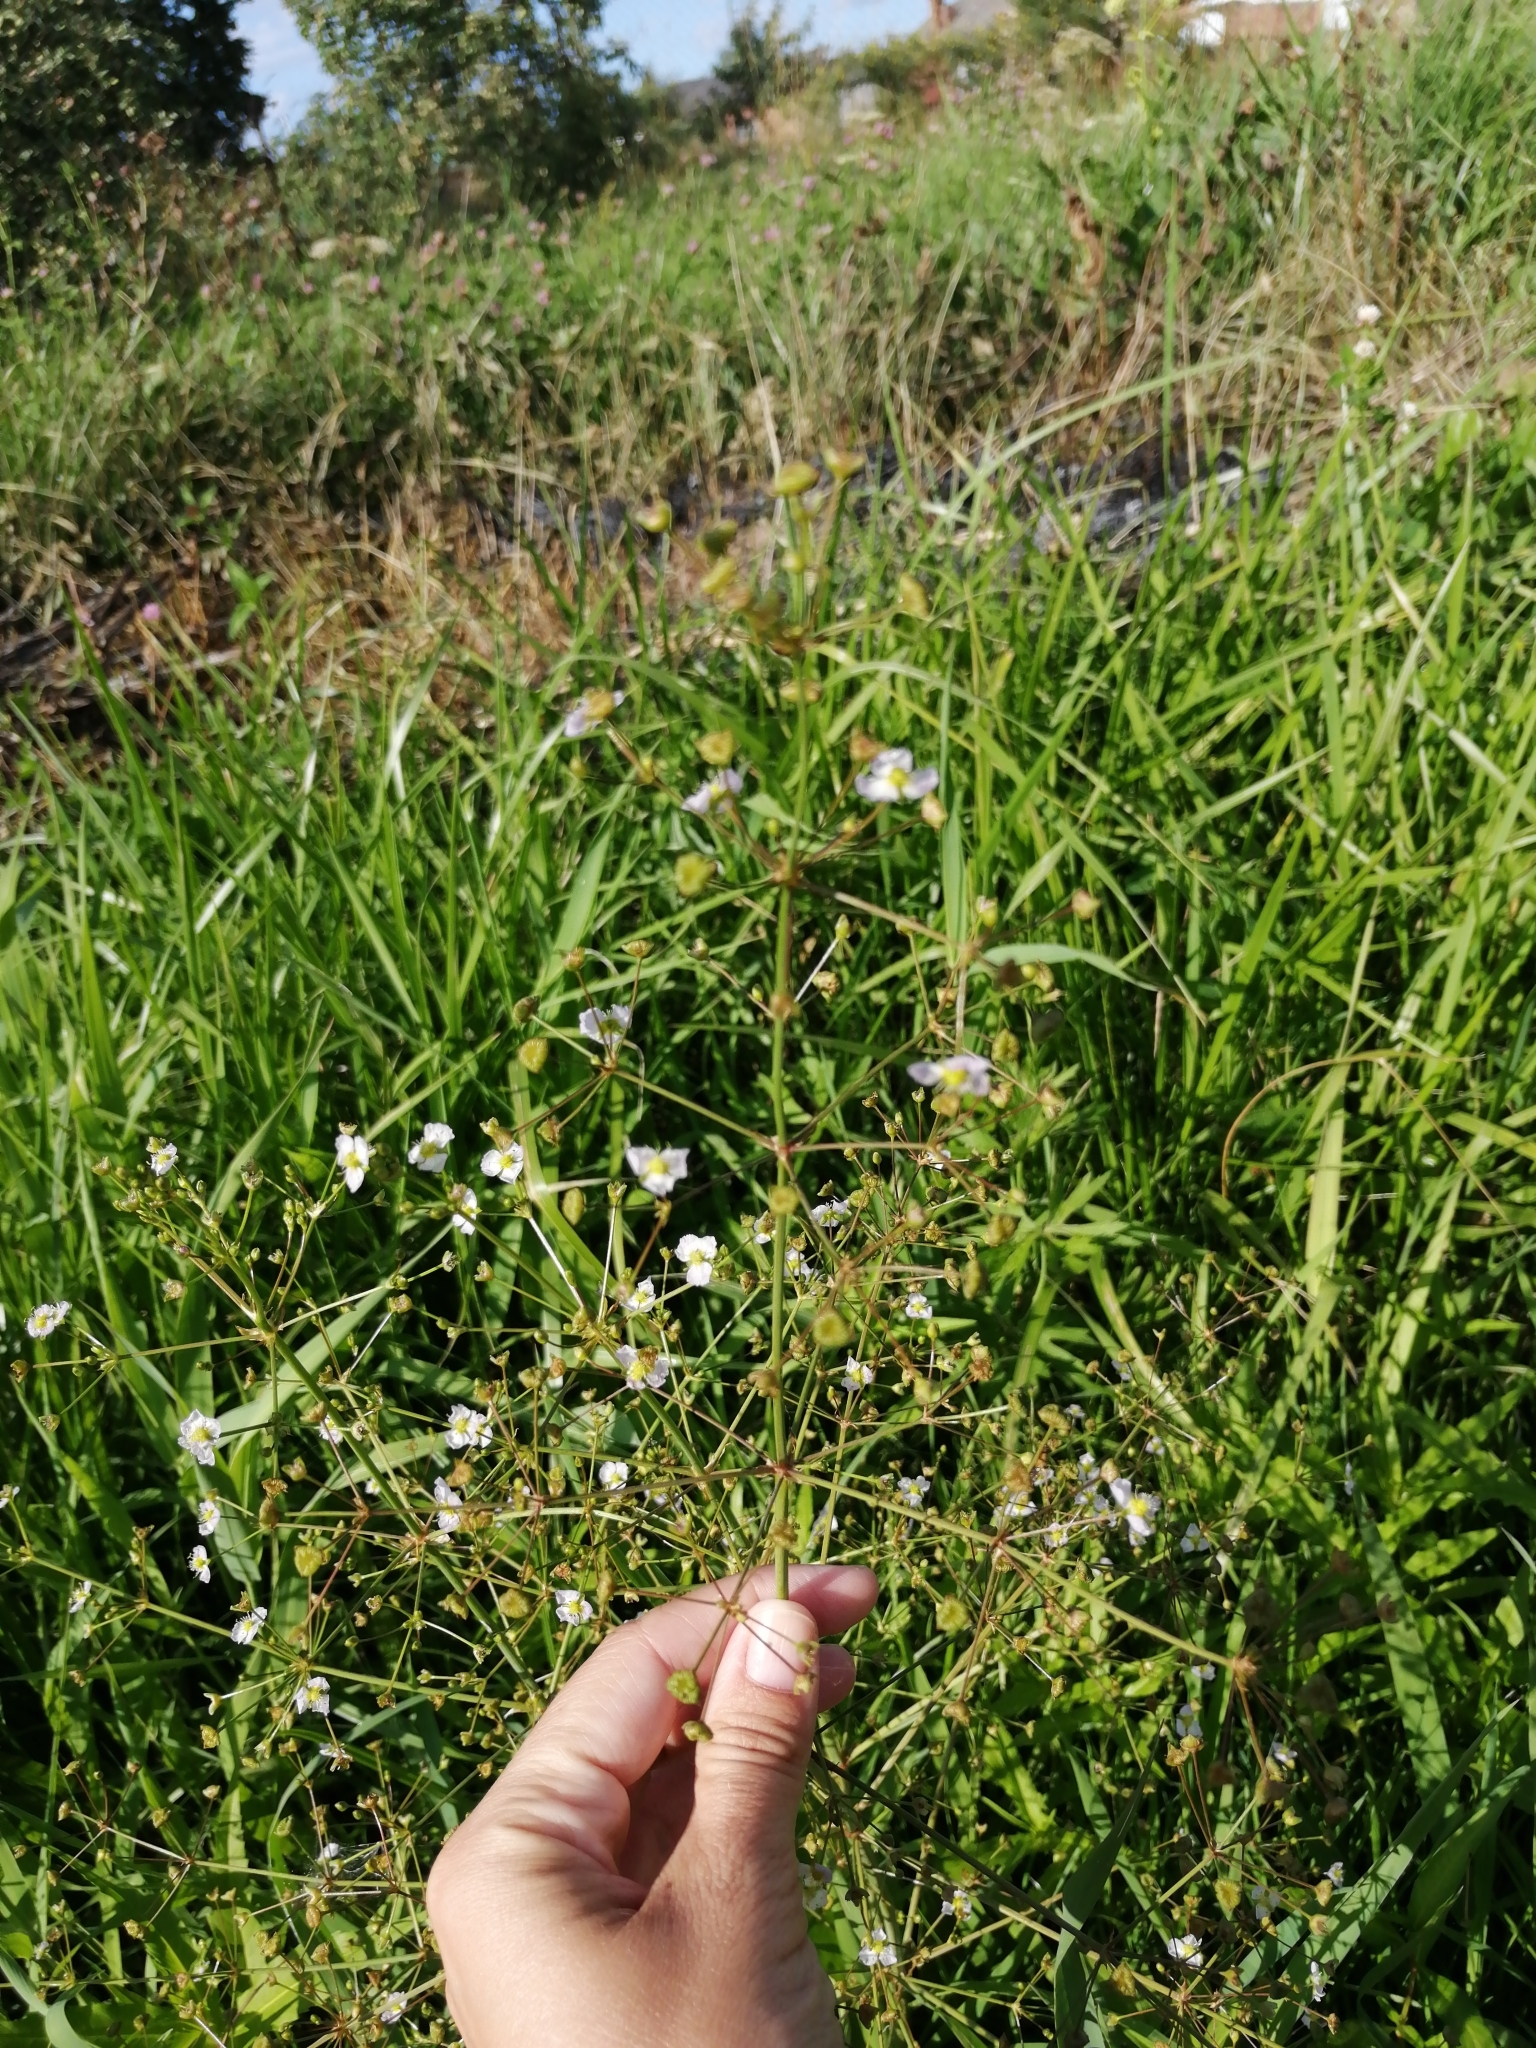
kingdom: Plantae
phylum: Tracheophyta
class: Liliopsida
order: Alismatales
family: Alismataceae
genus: Alisma
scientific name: Alisma plantago-aquatica
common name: Water-plantain
